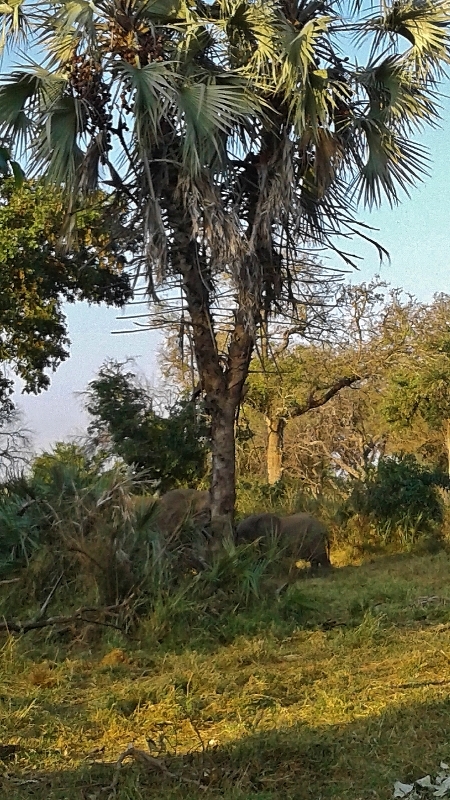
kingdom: Plantae
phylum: Tracheophyta
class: Liliopsida
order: Arecales
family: Arecaceae
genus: Hyphaene
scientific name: Hyphaene petersiana
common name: African ivory nut palm
